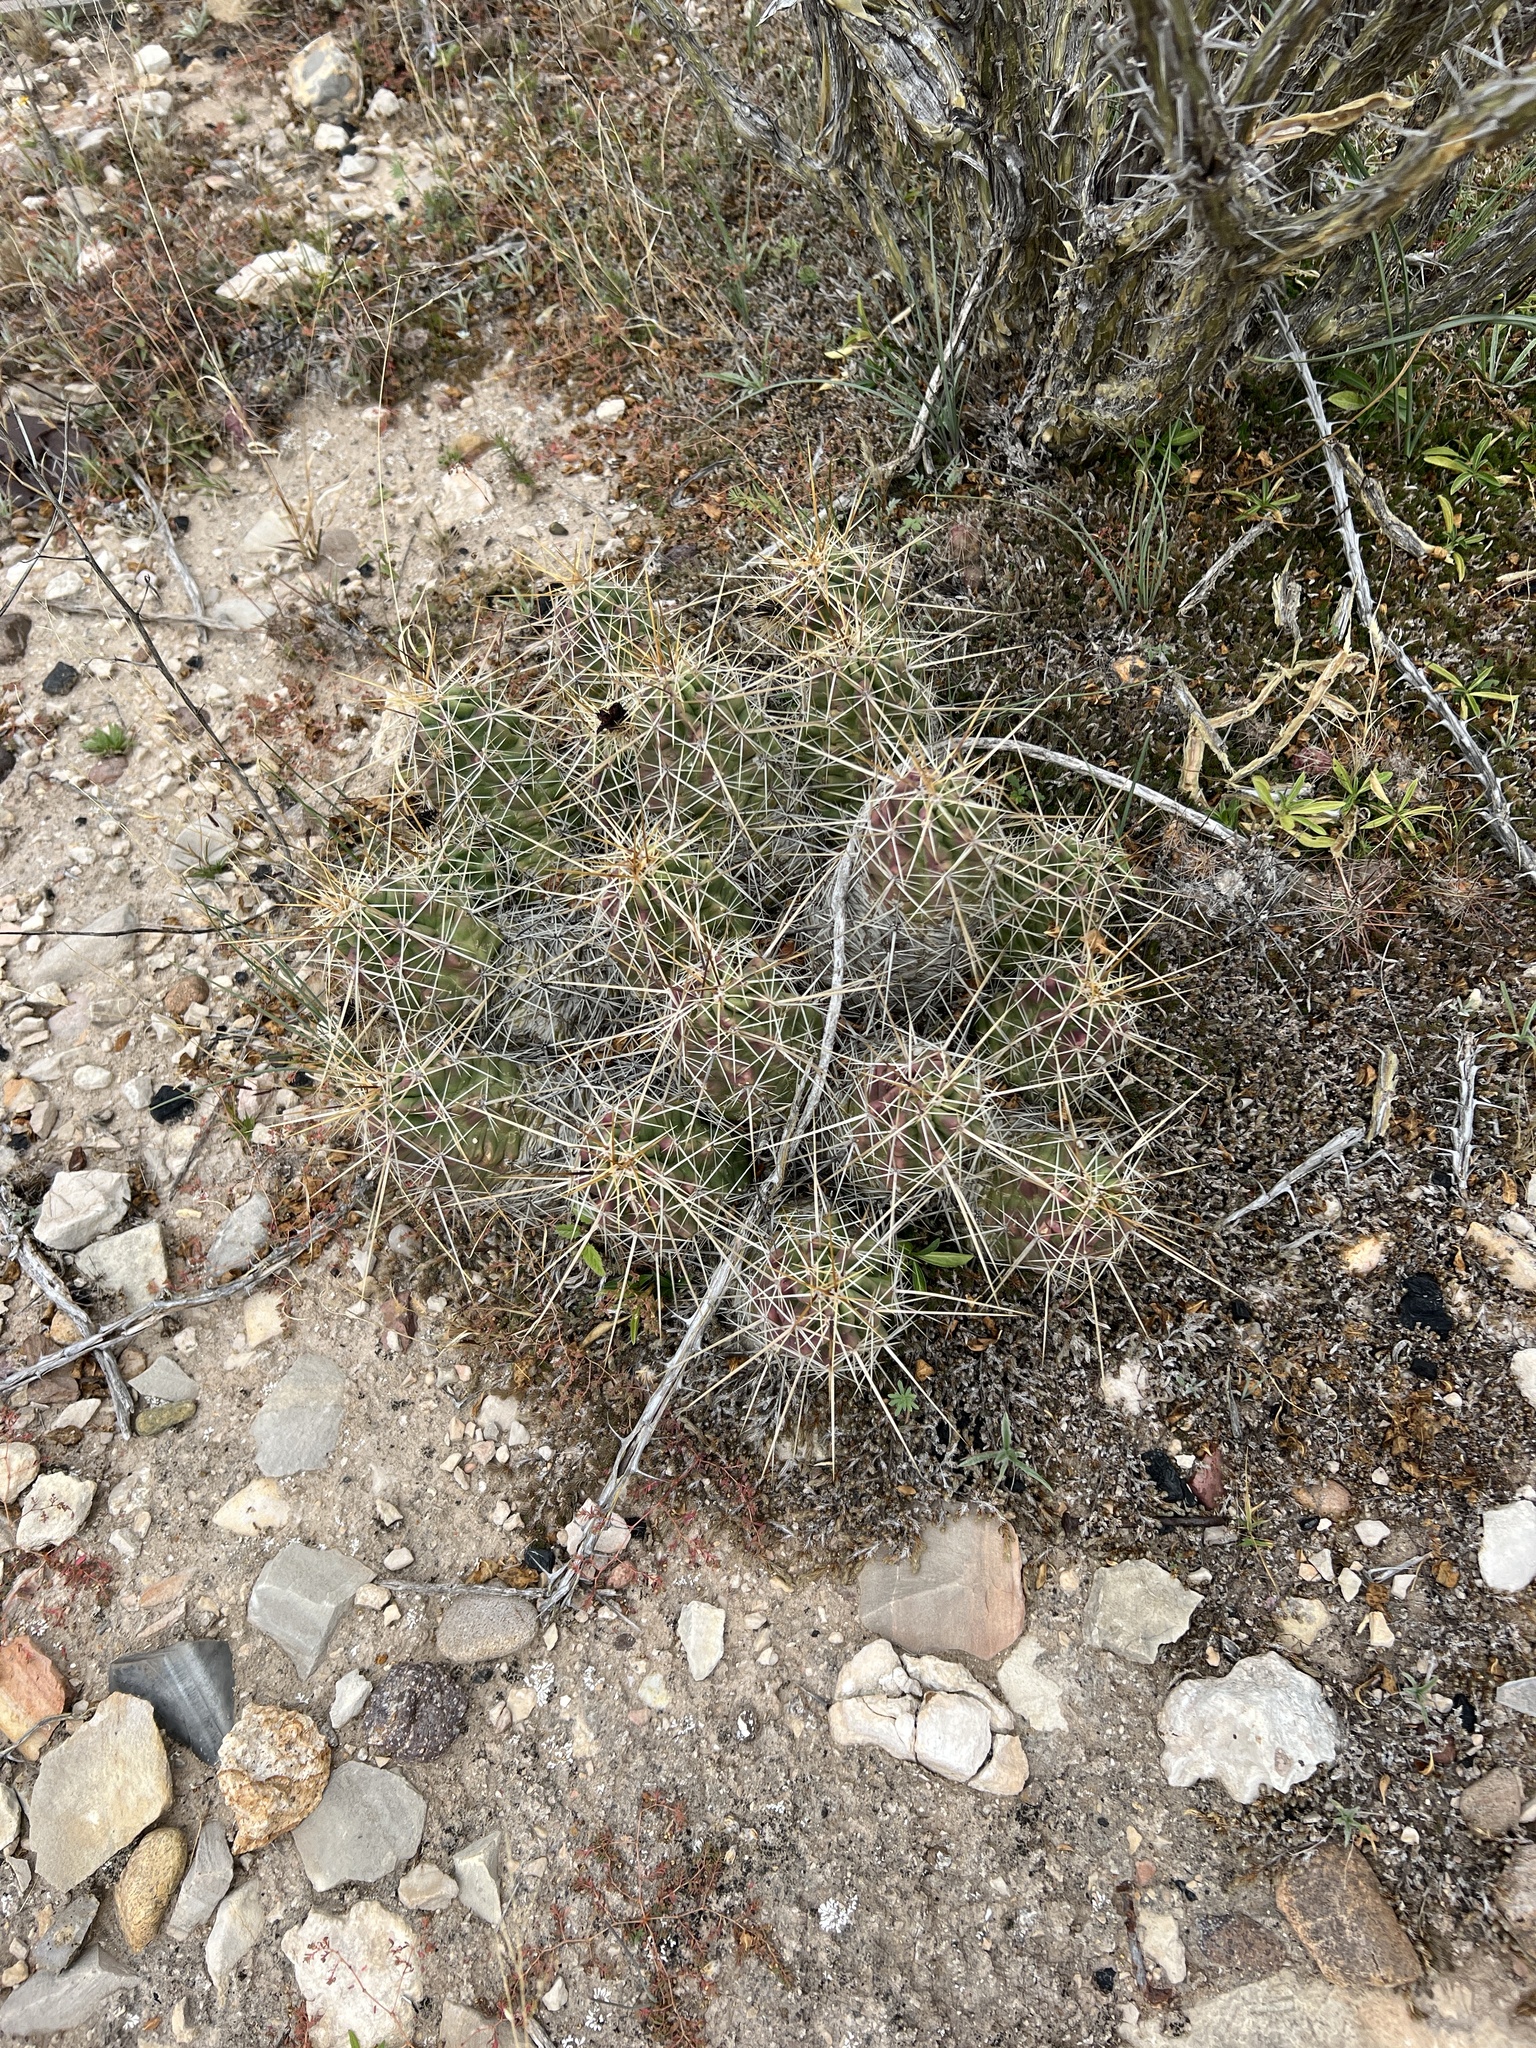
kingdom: Plantae
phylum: Tracheophyta
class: Magnoliopsida
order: Caryophyllales
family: Cactaceae
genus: Echinocereus
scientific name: Echinocereus enneacanthus
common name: Pitaya
